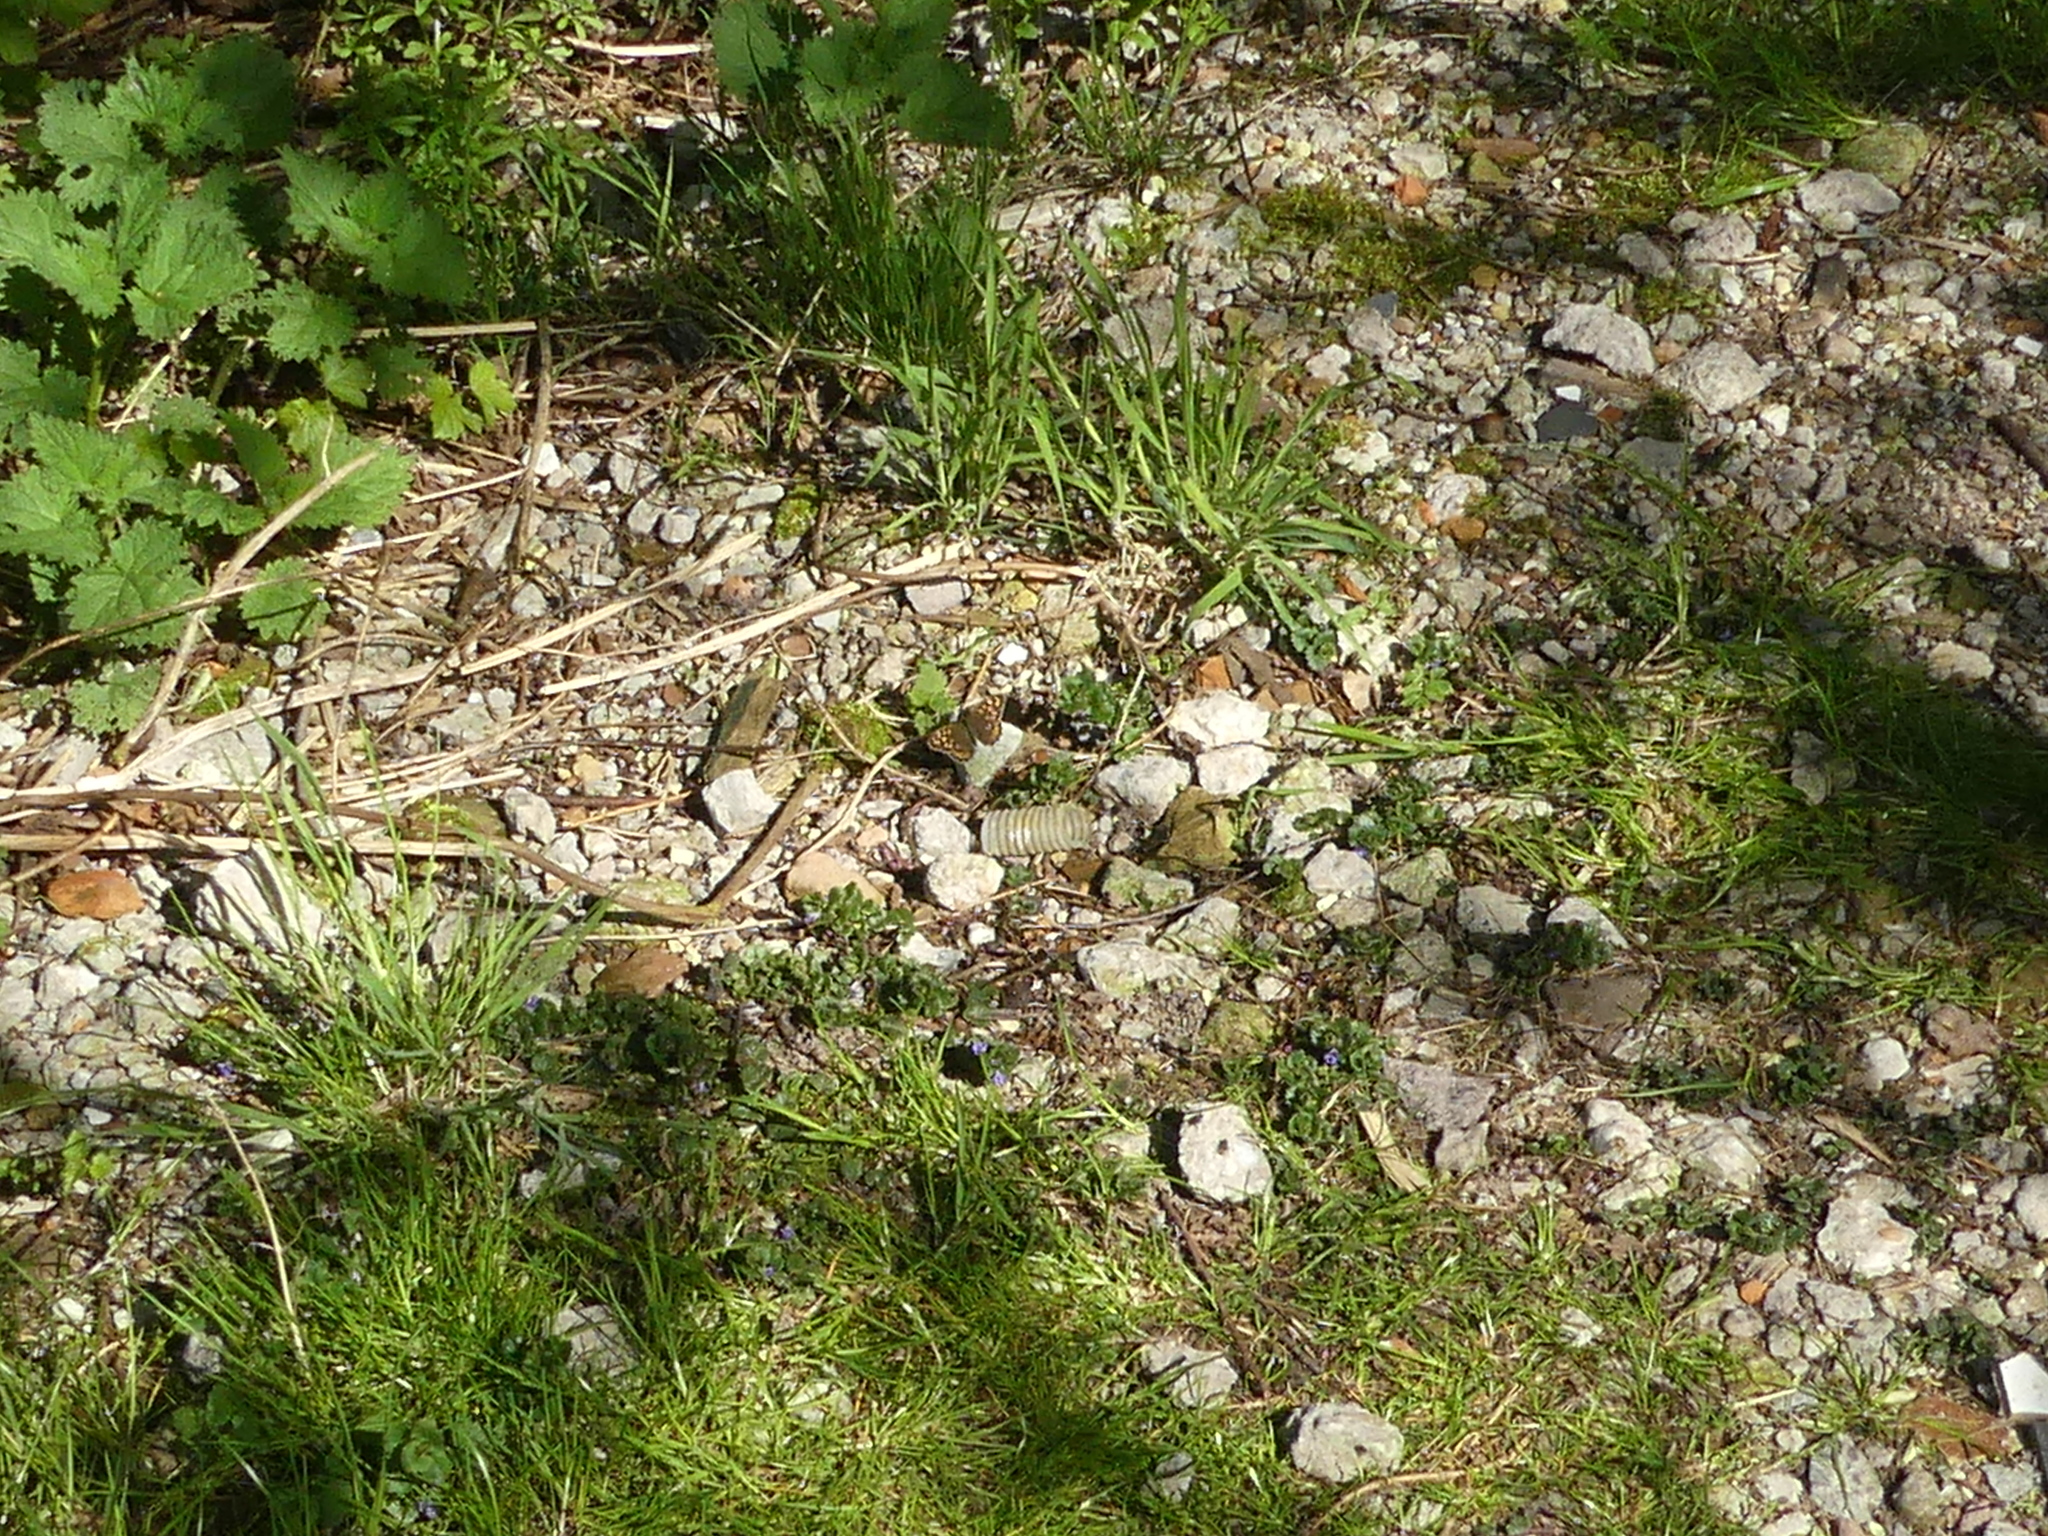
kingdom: Animalia
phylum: Arthropoda
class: Insecta
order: Lepidoptera
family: Nymphalidae
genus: Pararge
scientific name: Pararge aegeria
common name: Speckled wood
